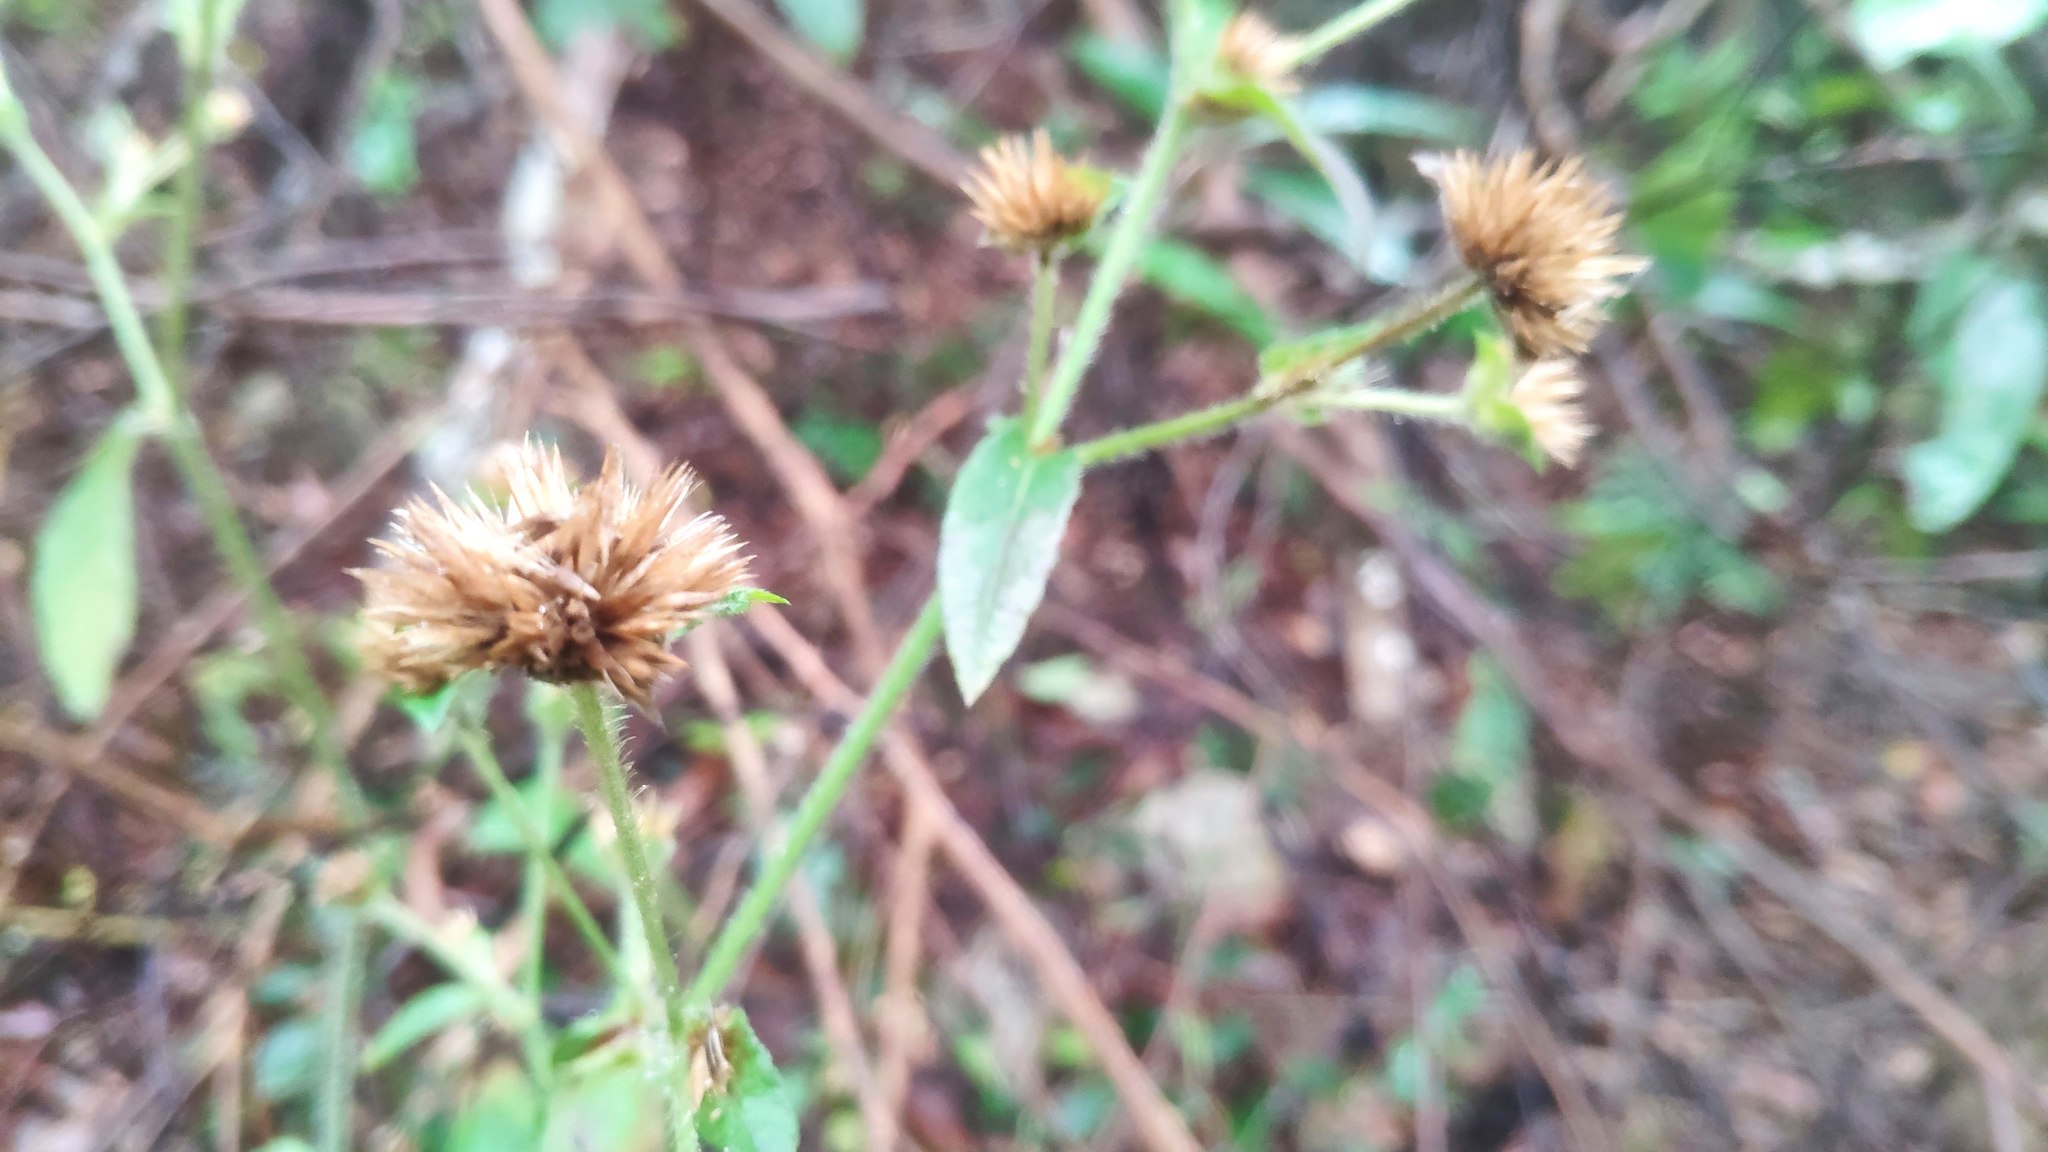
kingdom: Plantae
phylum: Tracheophyta
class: Magnoliopsida
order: Asterales
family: Asteraceae
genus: Elephantopus
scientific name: Elephantopus mollis
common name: Soft elephantsfoot
